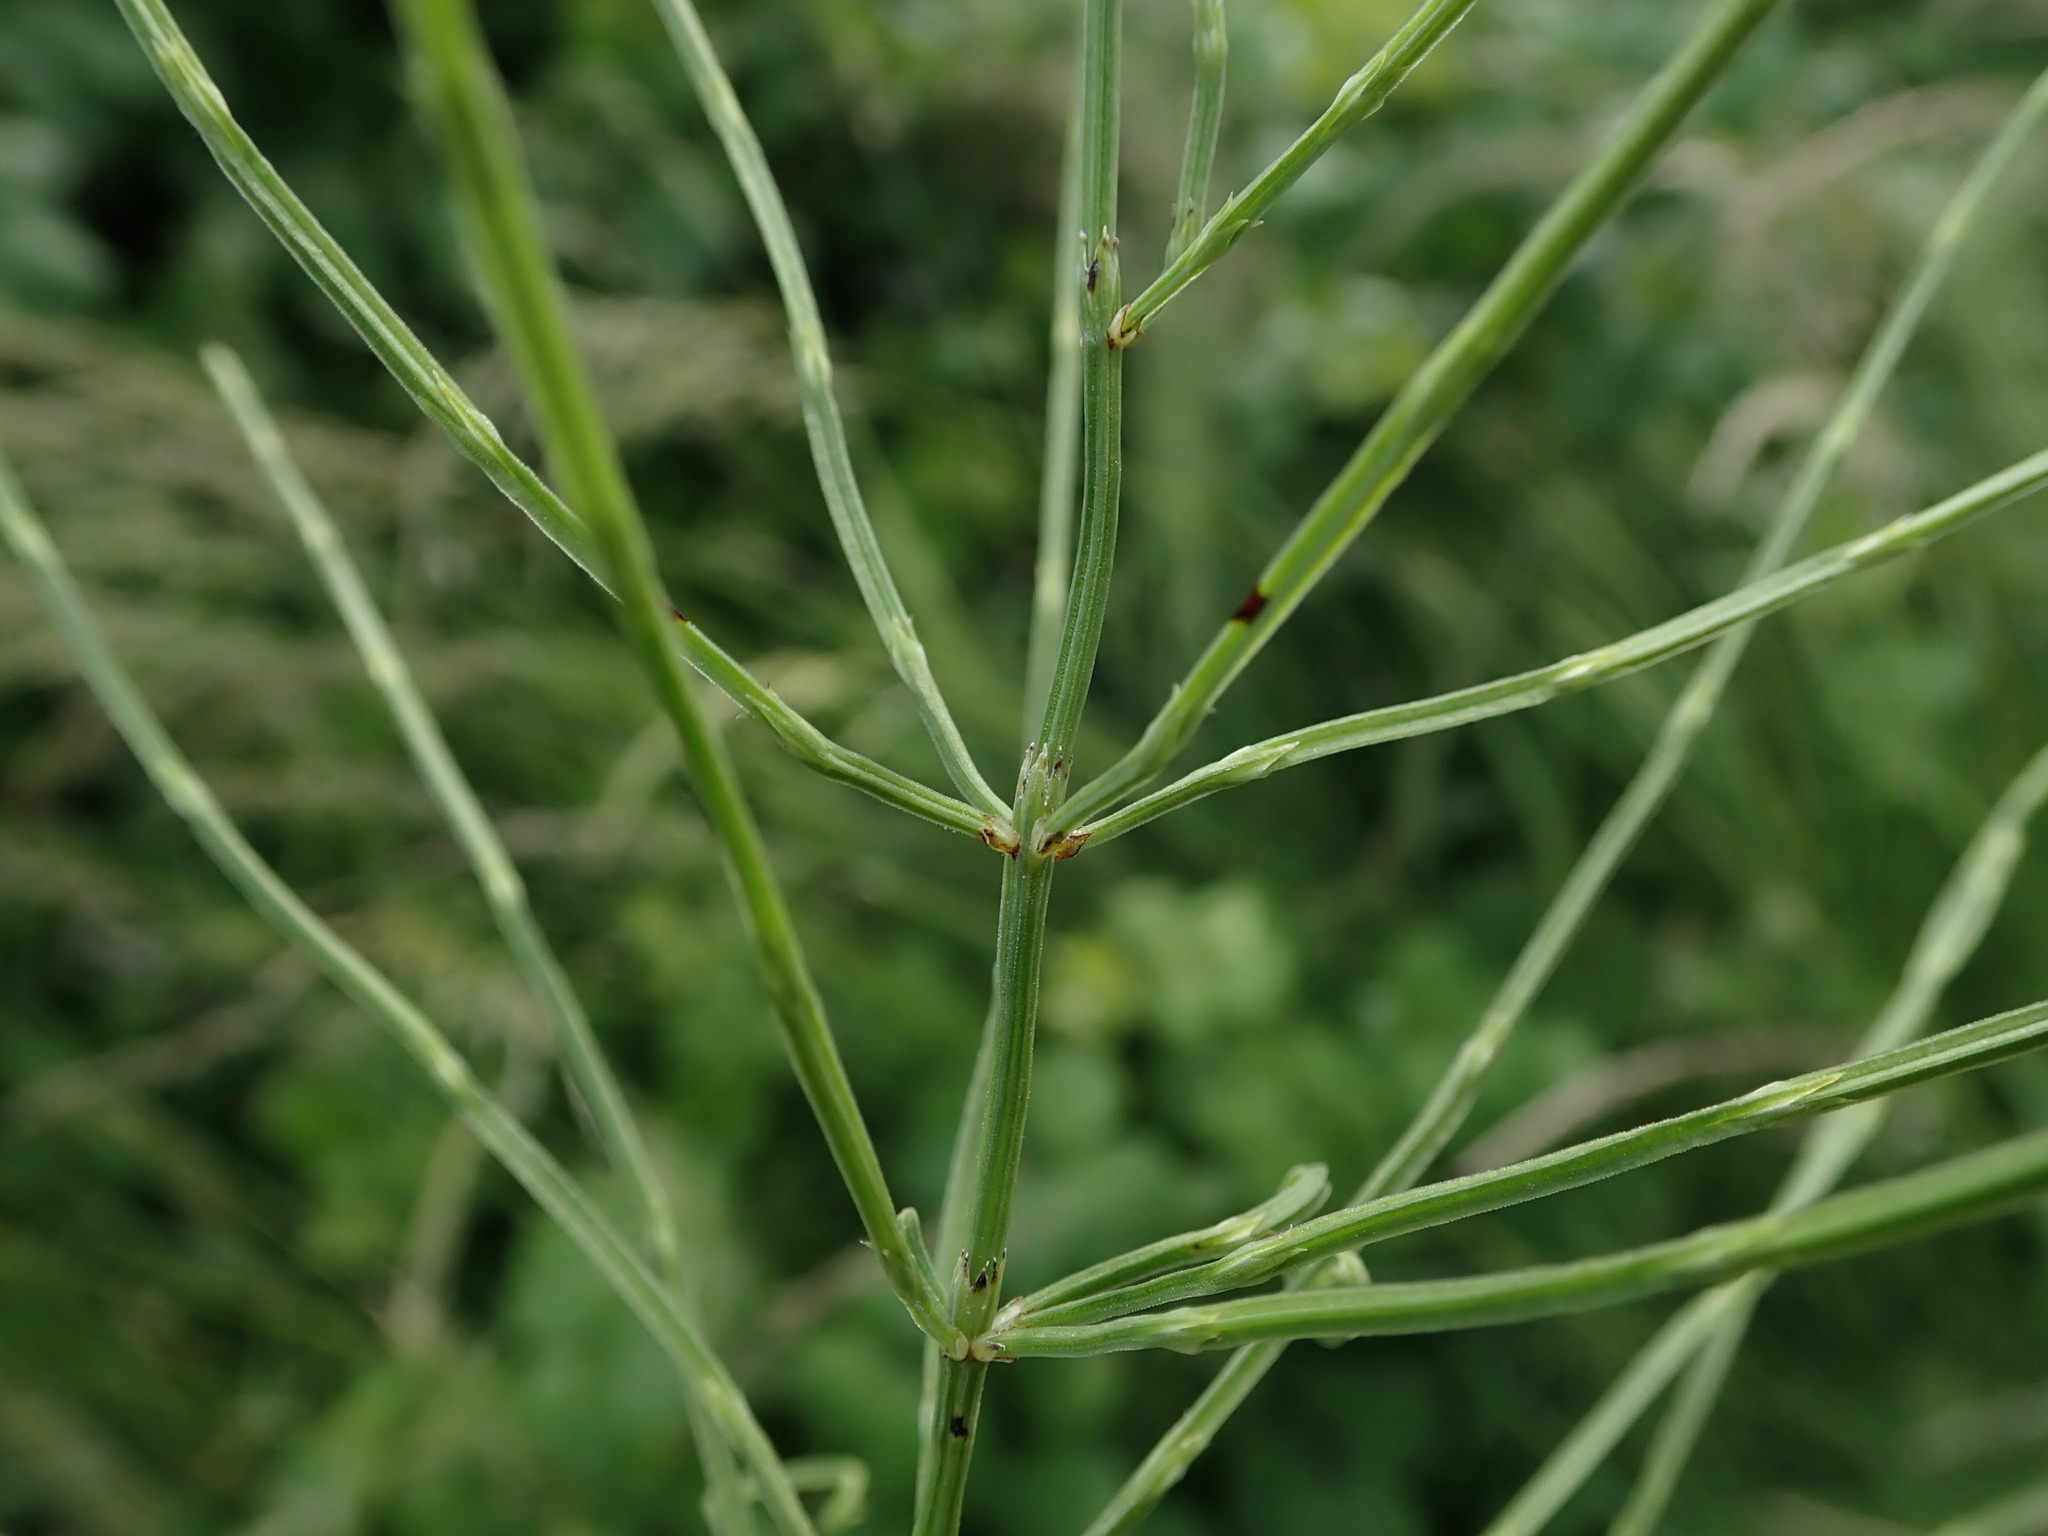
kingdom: Plantae
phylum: Tracheophyta
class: Polypodiopsida
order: Equisetales
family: Equisetaceae
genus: Equisetum
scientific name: Equisetum arvense
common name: Field horsetail
